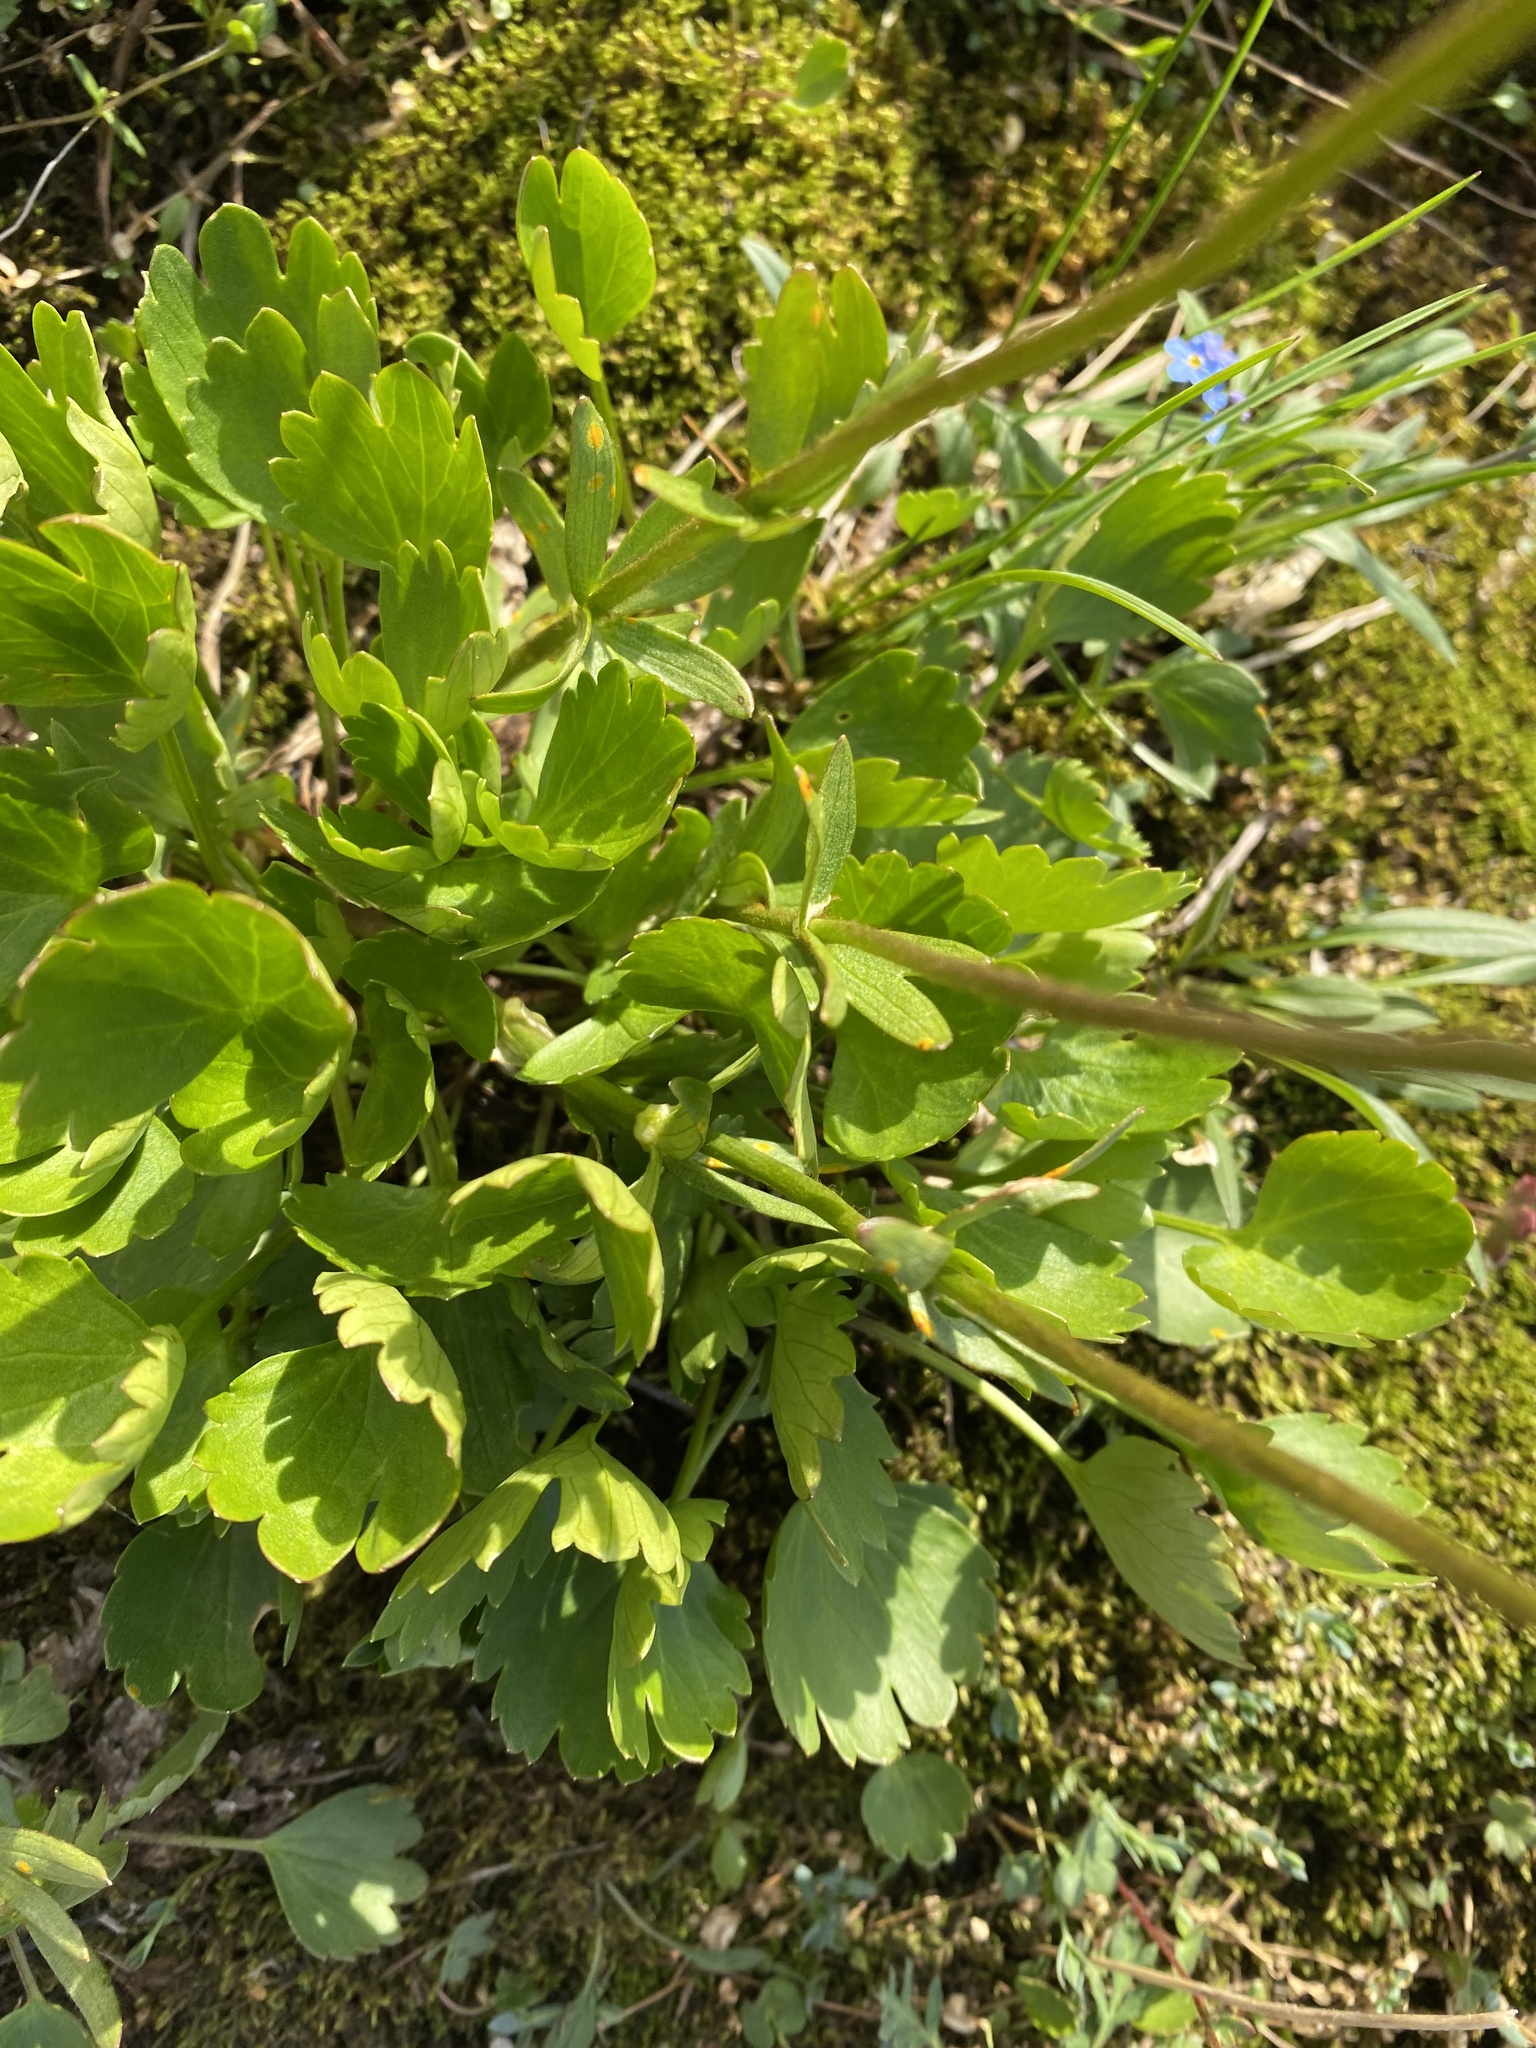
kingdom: Plantae
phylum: Tracheophyta
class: Magnoliopsida
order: Ranunculales
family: Ranunculaceae
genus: Ranunculus
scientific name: Ranunculus sulphureus
